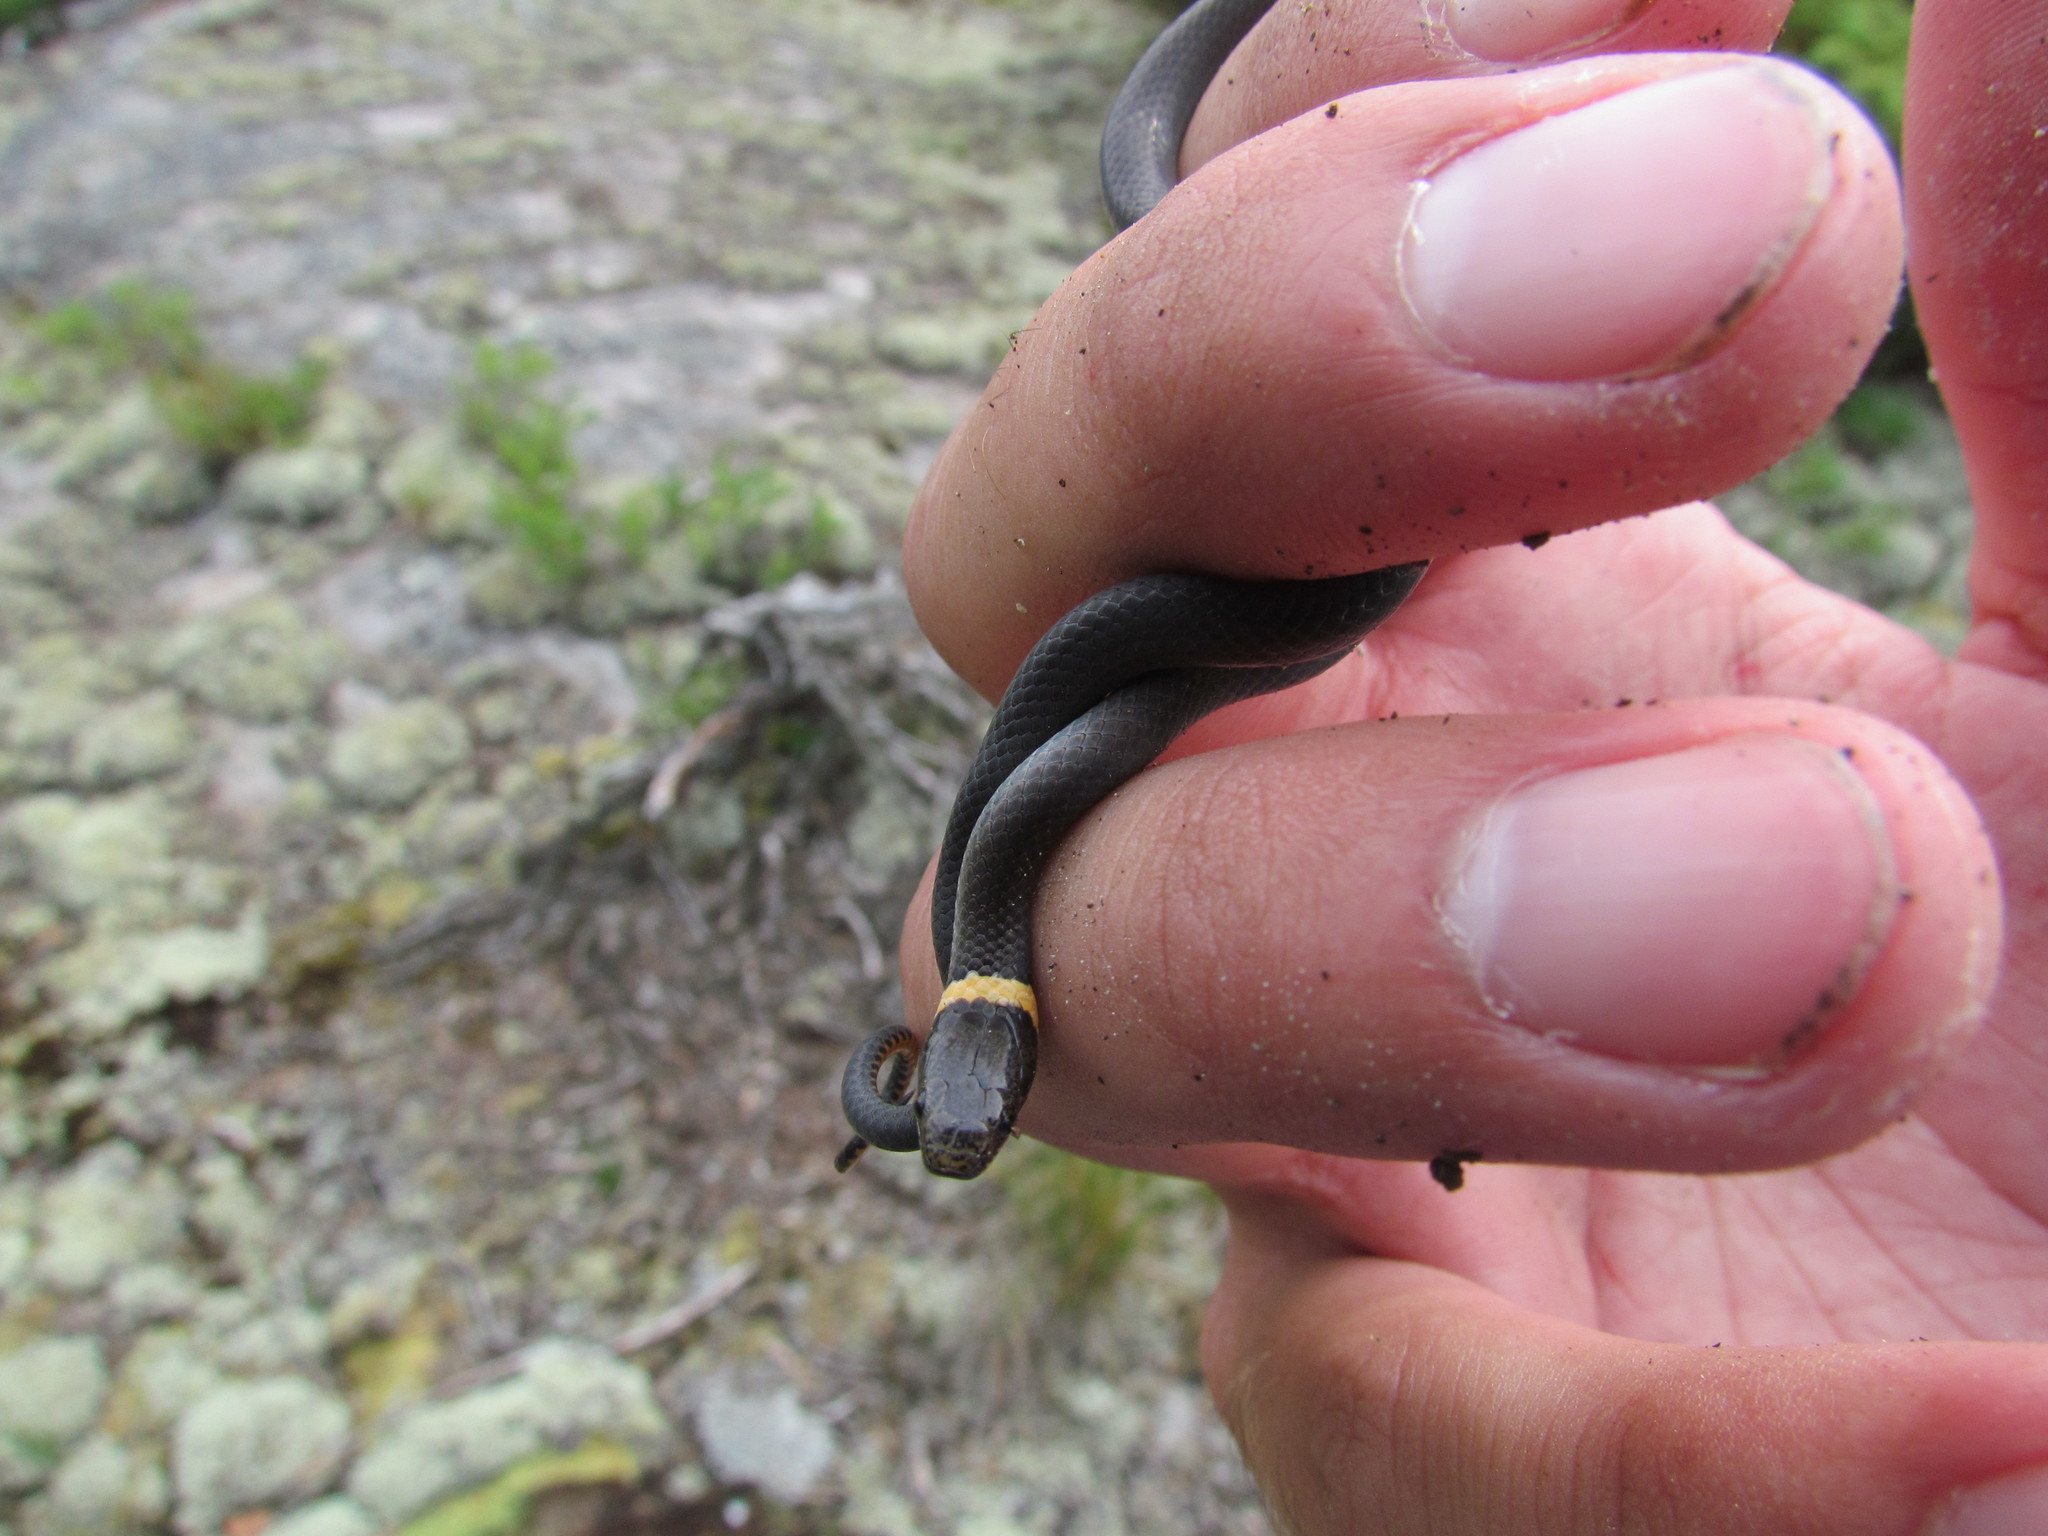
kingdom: Animalia
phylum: Chordata
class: Squamata
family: Colubridae
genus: Diadophis
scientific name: Diadophis punctatus
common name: Ringneck snake
